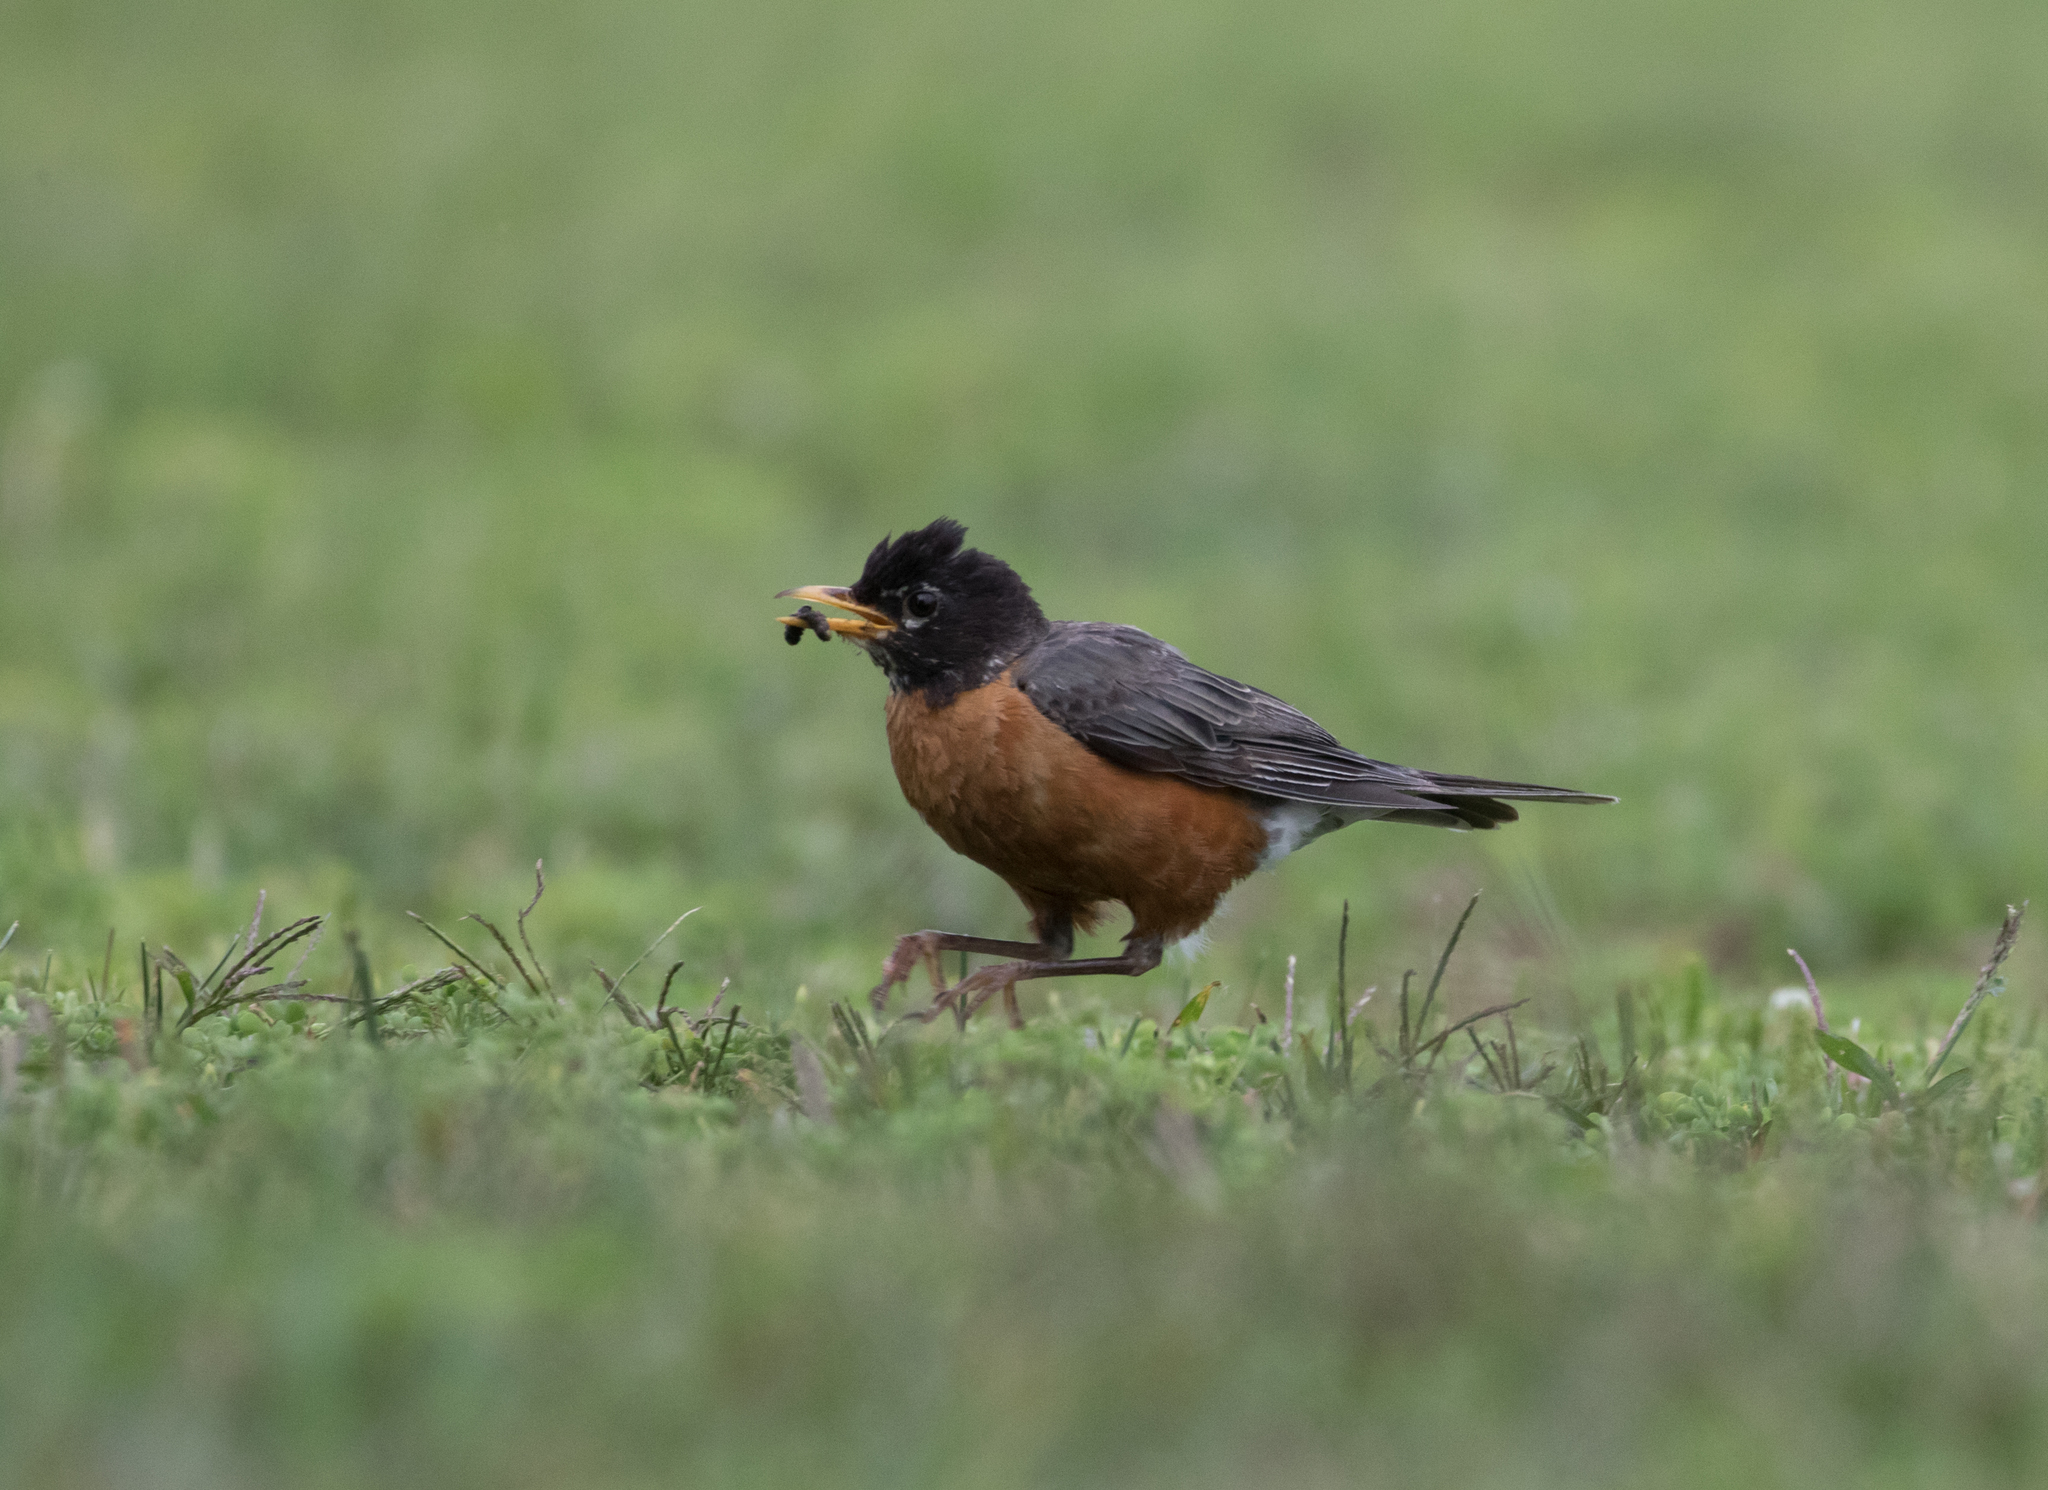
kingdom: Animalia
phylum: Chordata
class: Aves
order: Passeriformes
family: Turdidae
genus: Turdus
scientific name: Turdus migratorius
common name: American robin
